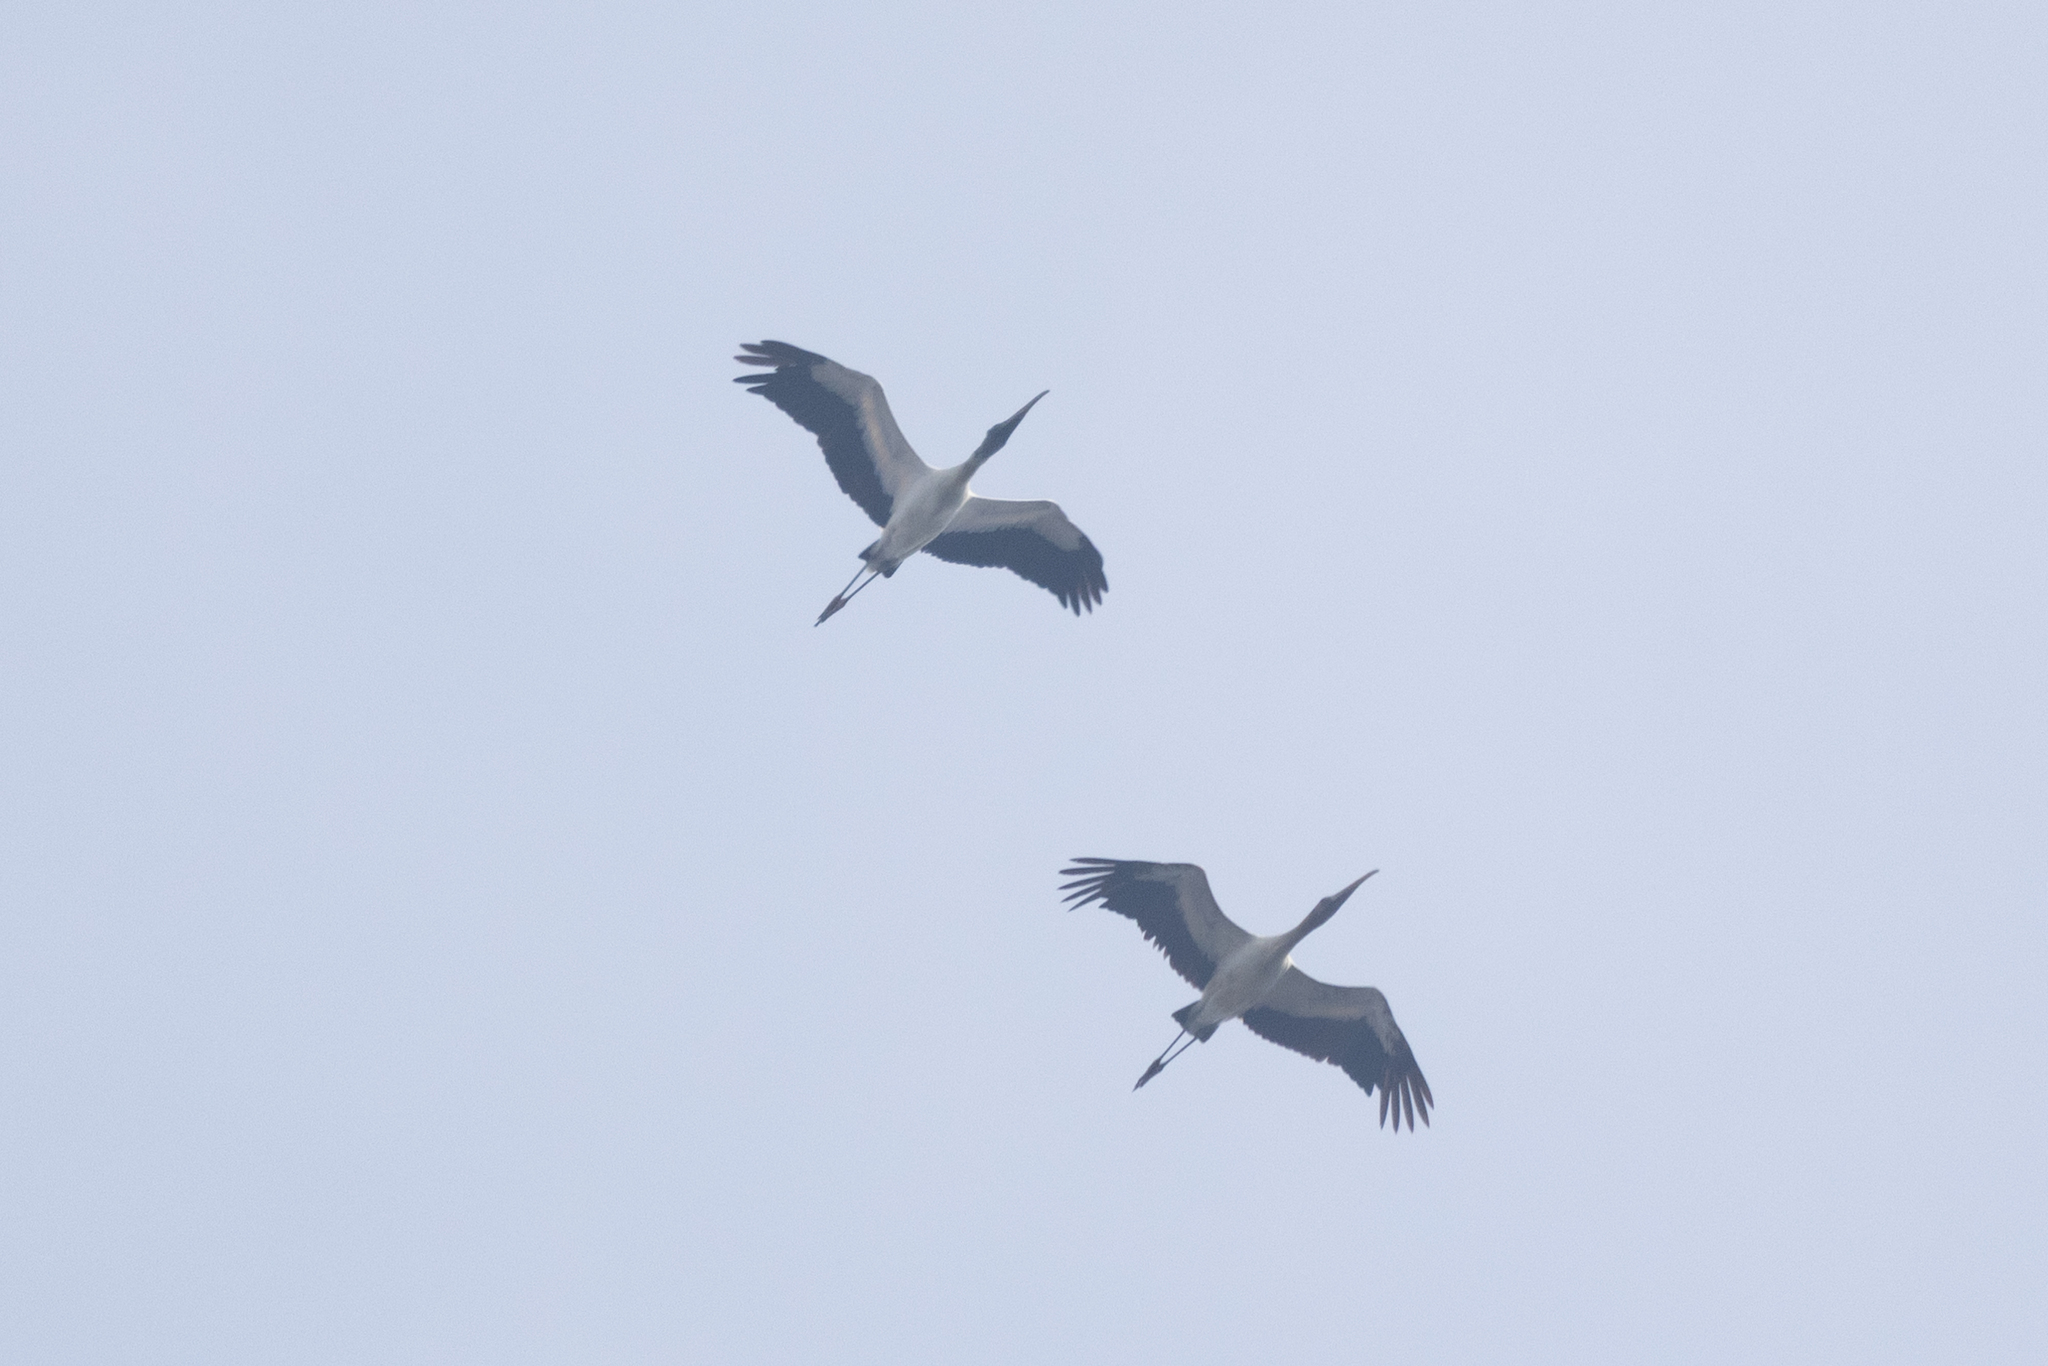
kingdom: Animalia
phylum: Chordata
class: Aves
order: Ciconiiformes
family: Ciconiidae
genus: Mycteria
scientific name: Mycteria americana
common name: Wood stork
